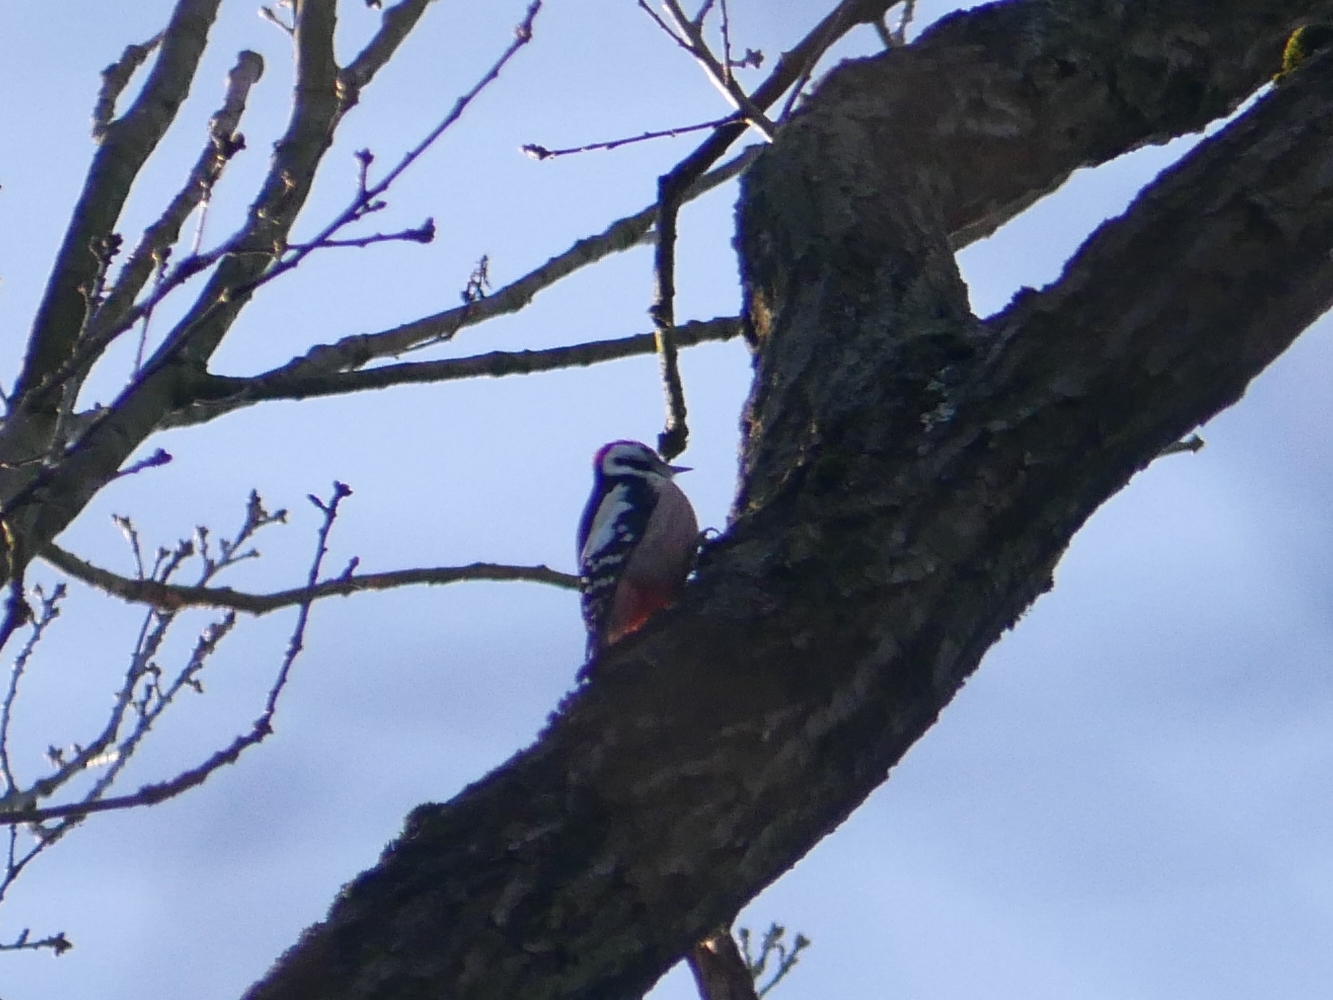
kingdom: Animalia
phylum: Chordata
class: Aves
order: Piciformes
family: Picidae
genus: Dendrocoptes
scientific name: Dendrocoptes medius
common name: Middle spotted woodpecker
